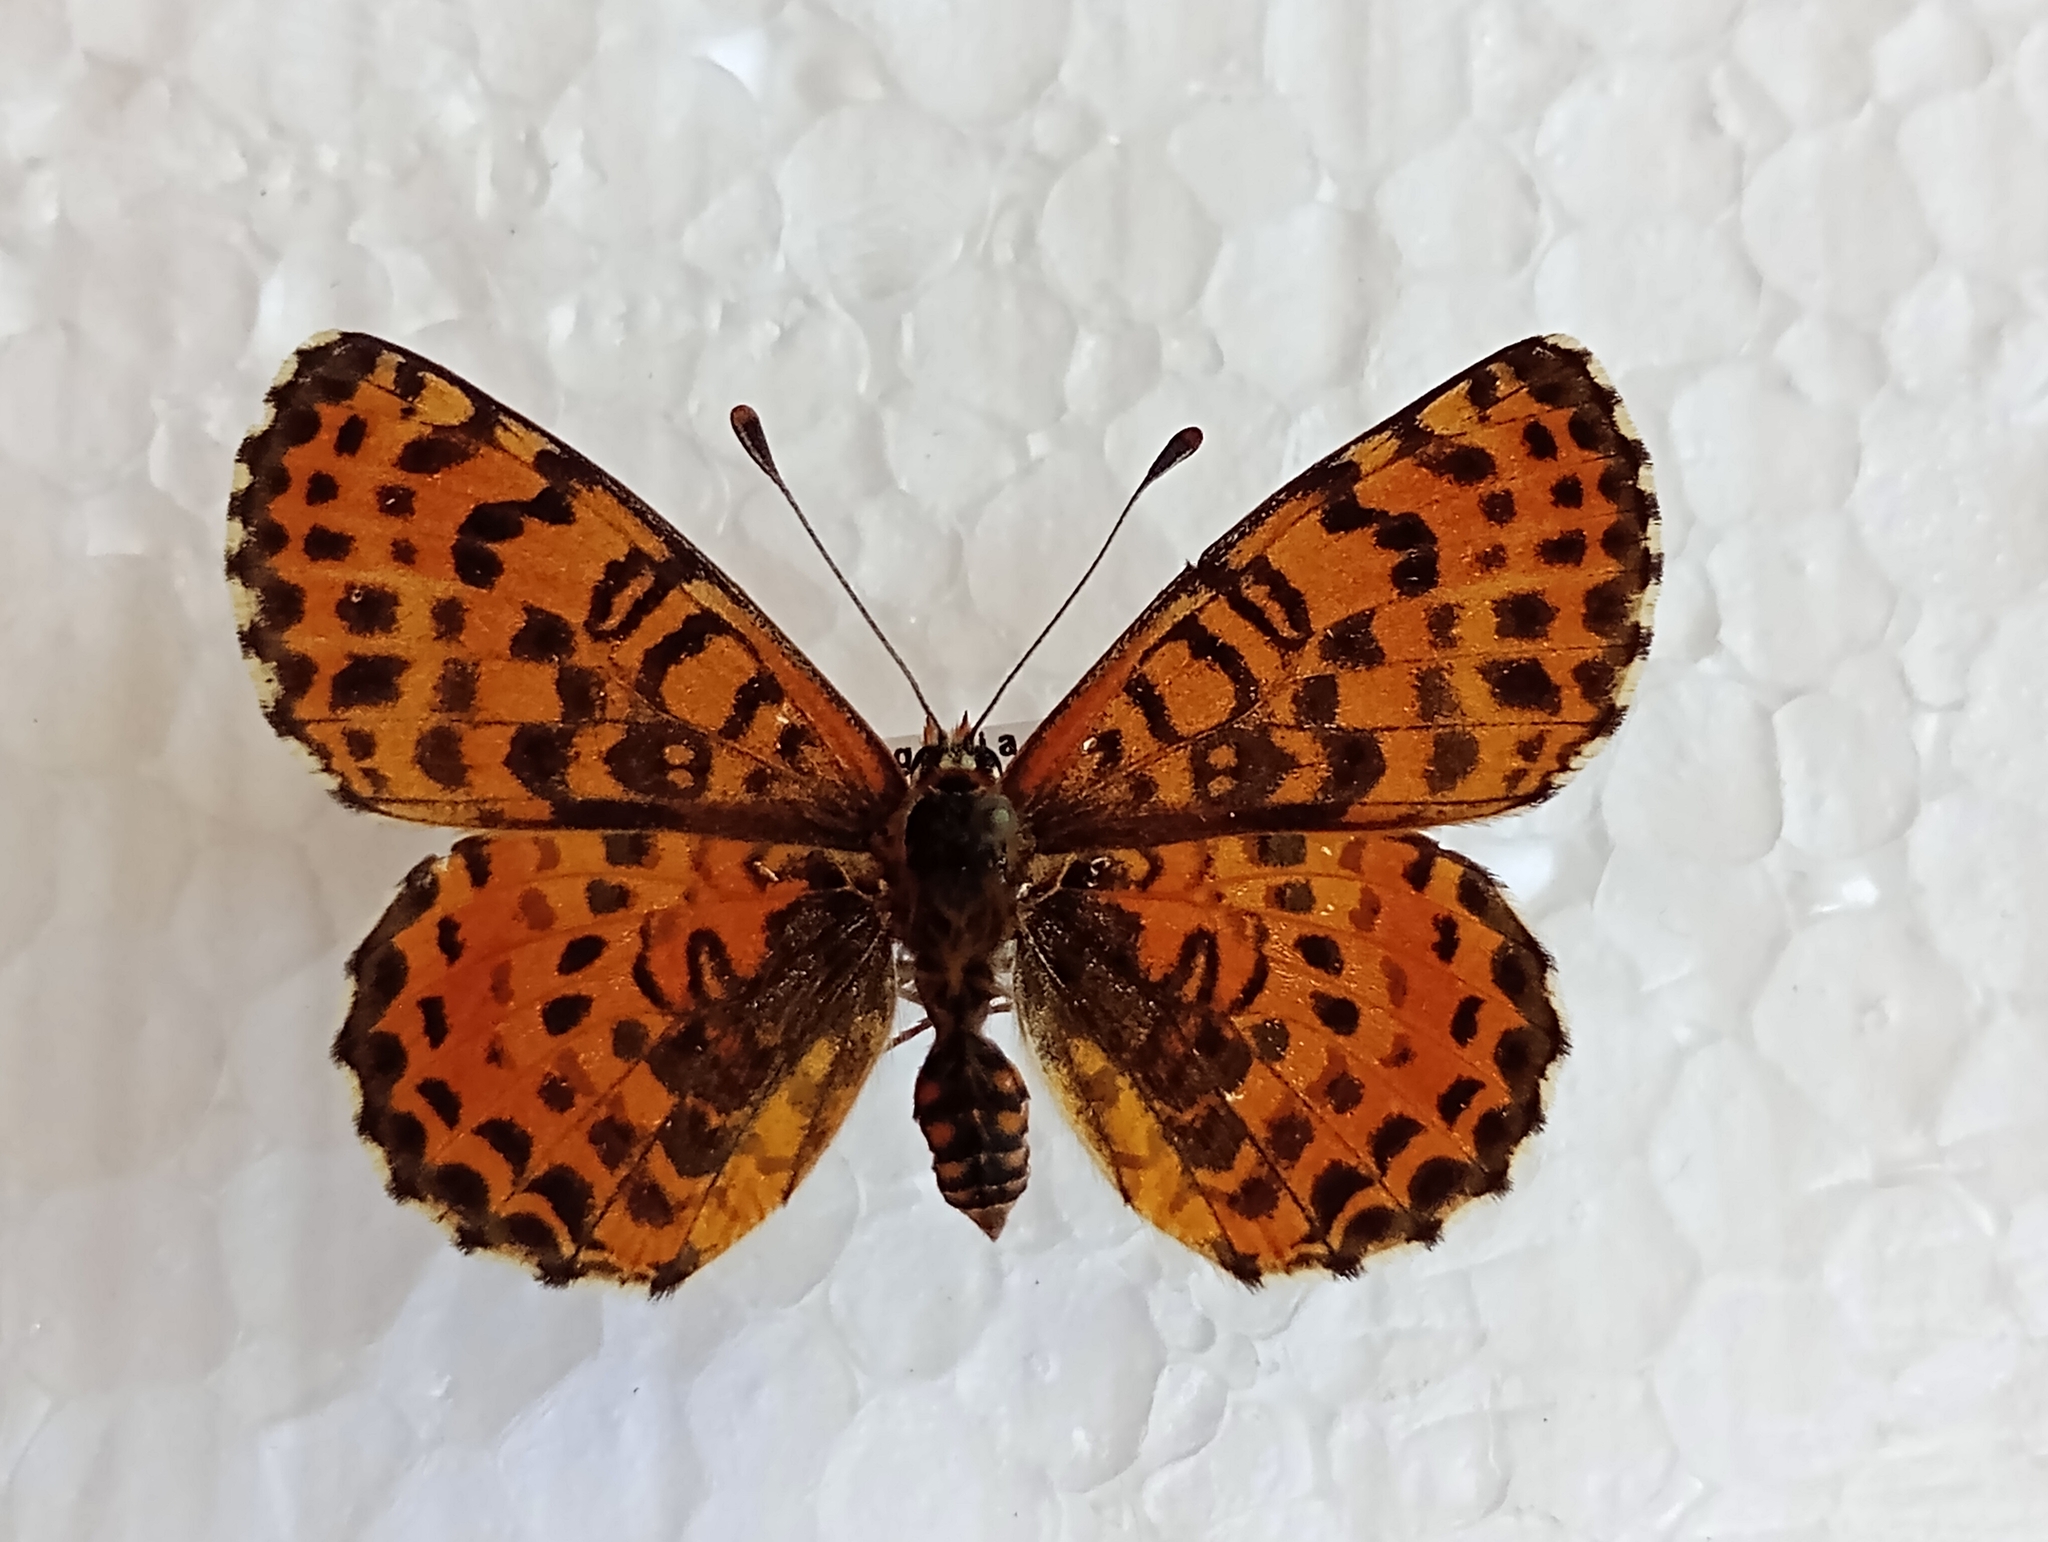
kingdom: Animalia
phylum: Arthropoda
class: Insecta
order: Lepidoptera
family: Nymphalidae
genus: Melitaea
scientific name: Melitaea didyma
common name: Spotted fritillary
